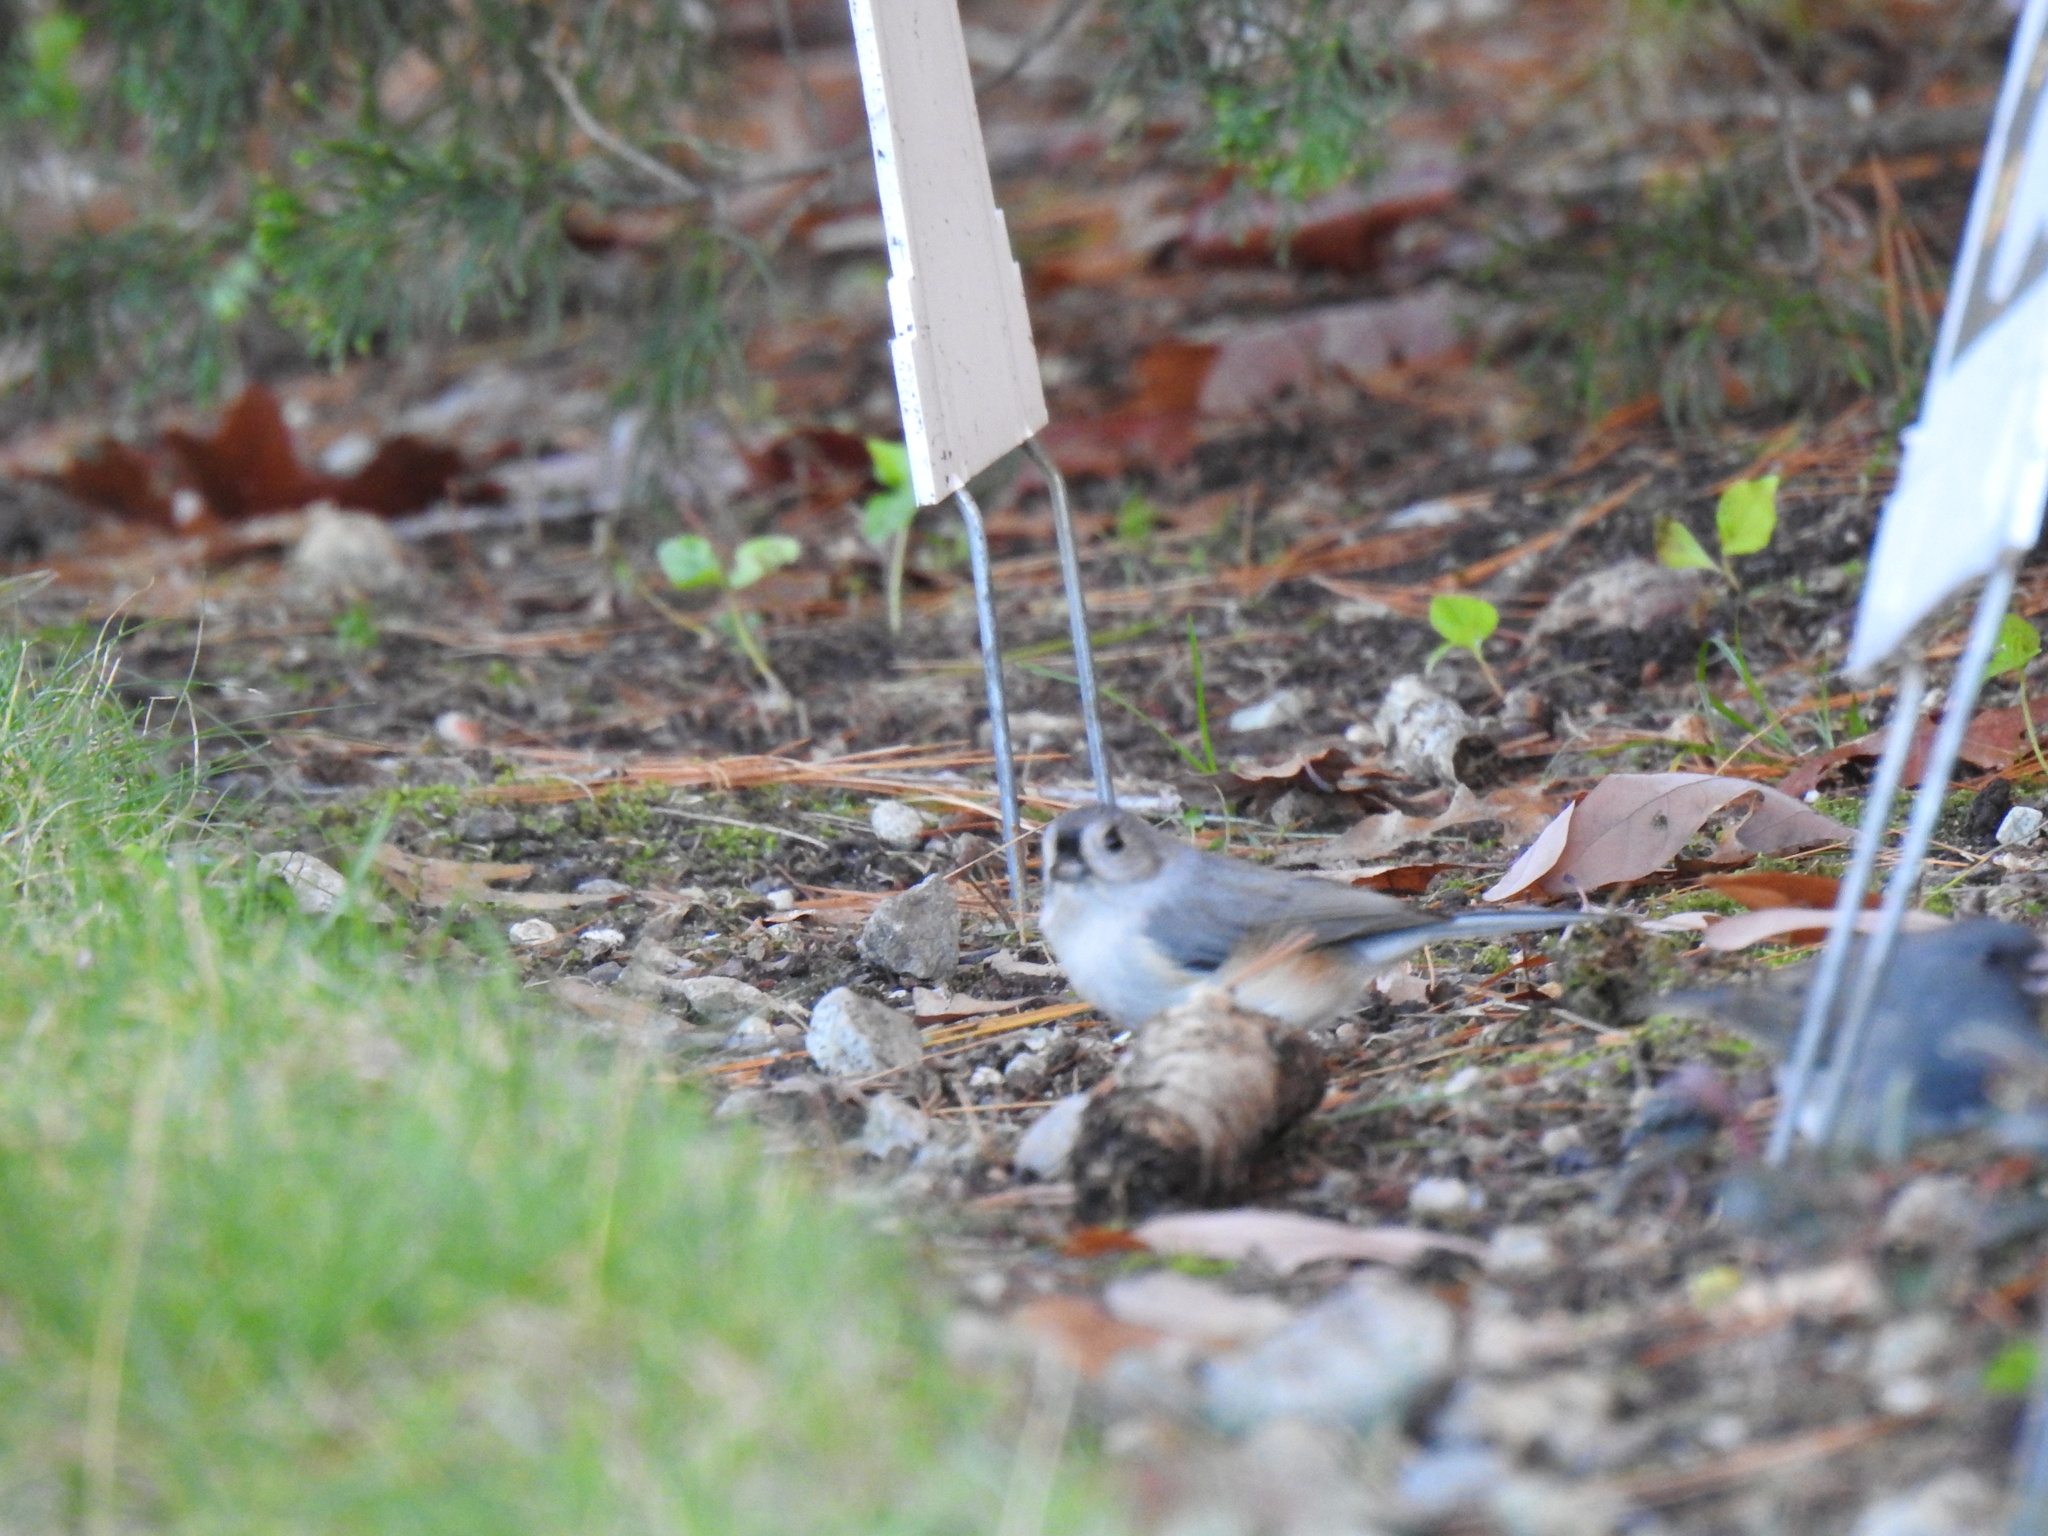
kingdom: Animalia
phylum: Chordata
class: Aves
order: Passeriformes
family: Paridae
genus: Baeolophus
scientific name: Baeolophus bicolor
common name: Tufted titmouse
